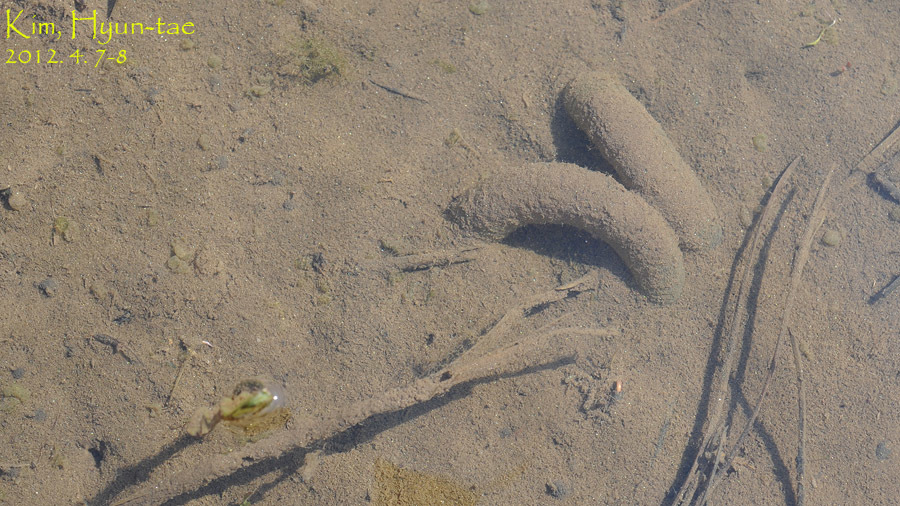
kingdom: Animalia
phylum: Chordata
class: Amphibia
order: Caudata
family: Hynobiidae
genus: Hynobius
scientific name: Hynobius leechii
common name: Gensan salamander
